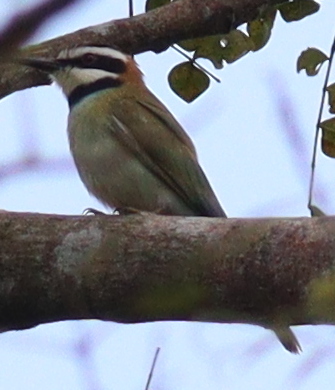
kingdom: Animalia
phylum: Chordata
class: Aves
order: Coraciiformes
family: Meropidae
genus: Merops
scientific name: Merops albicollis
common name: White-throated bee-eater
